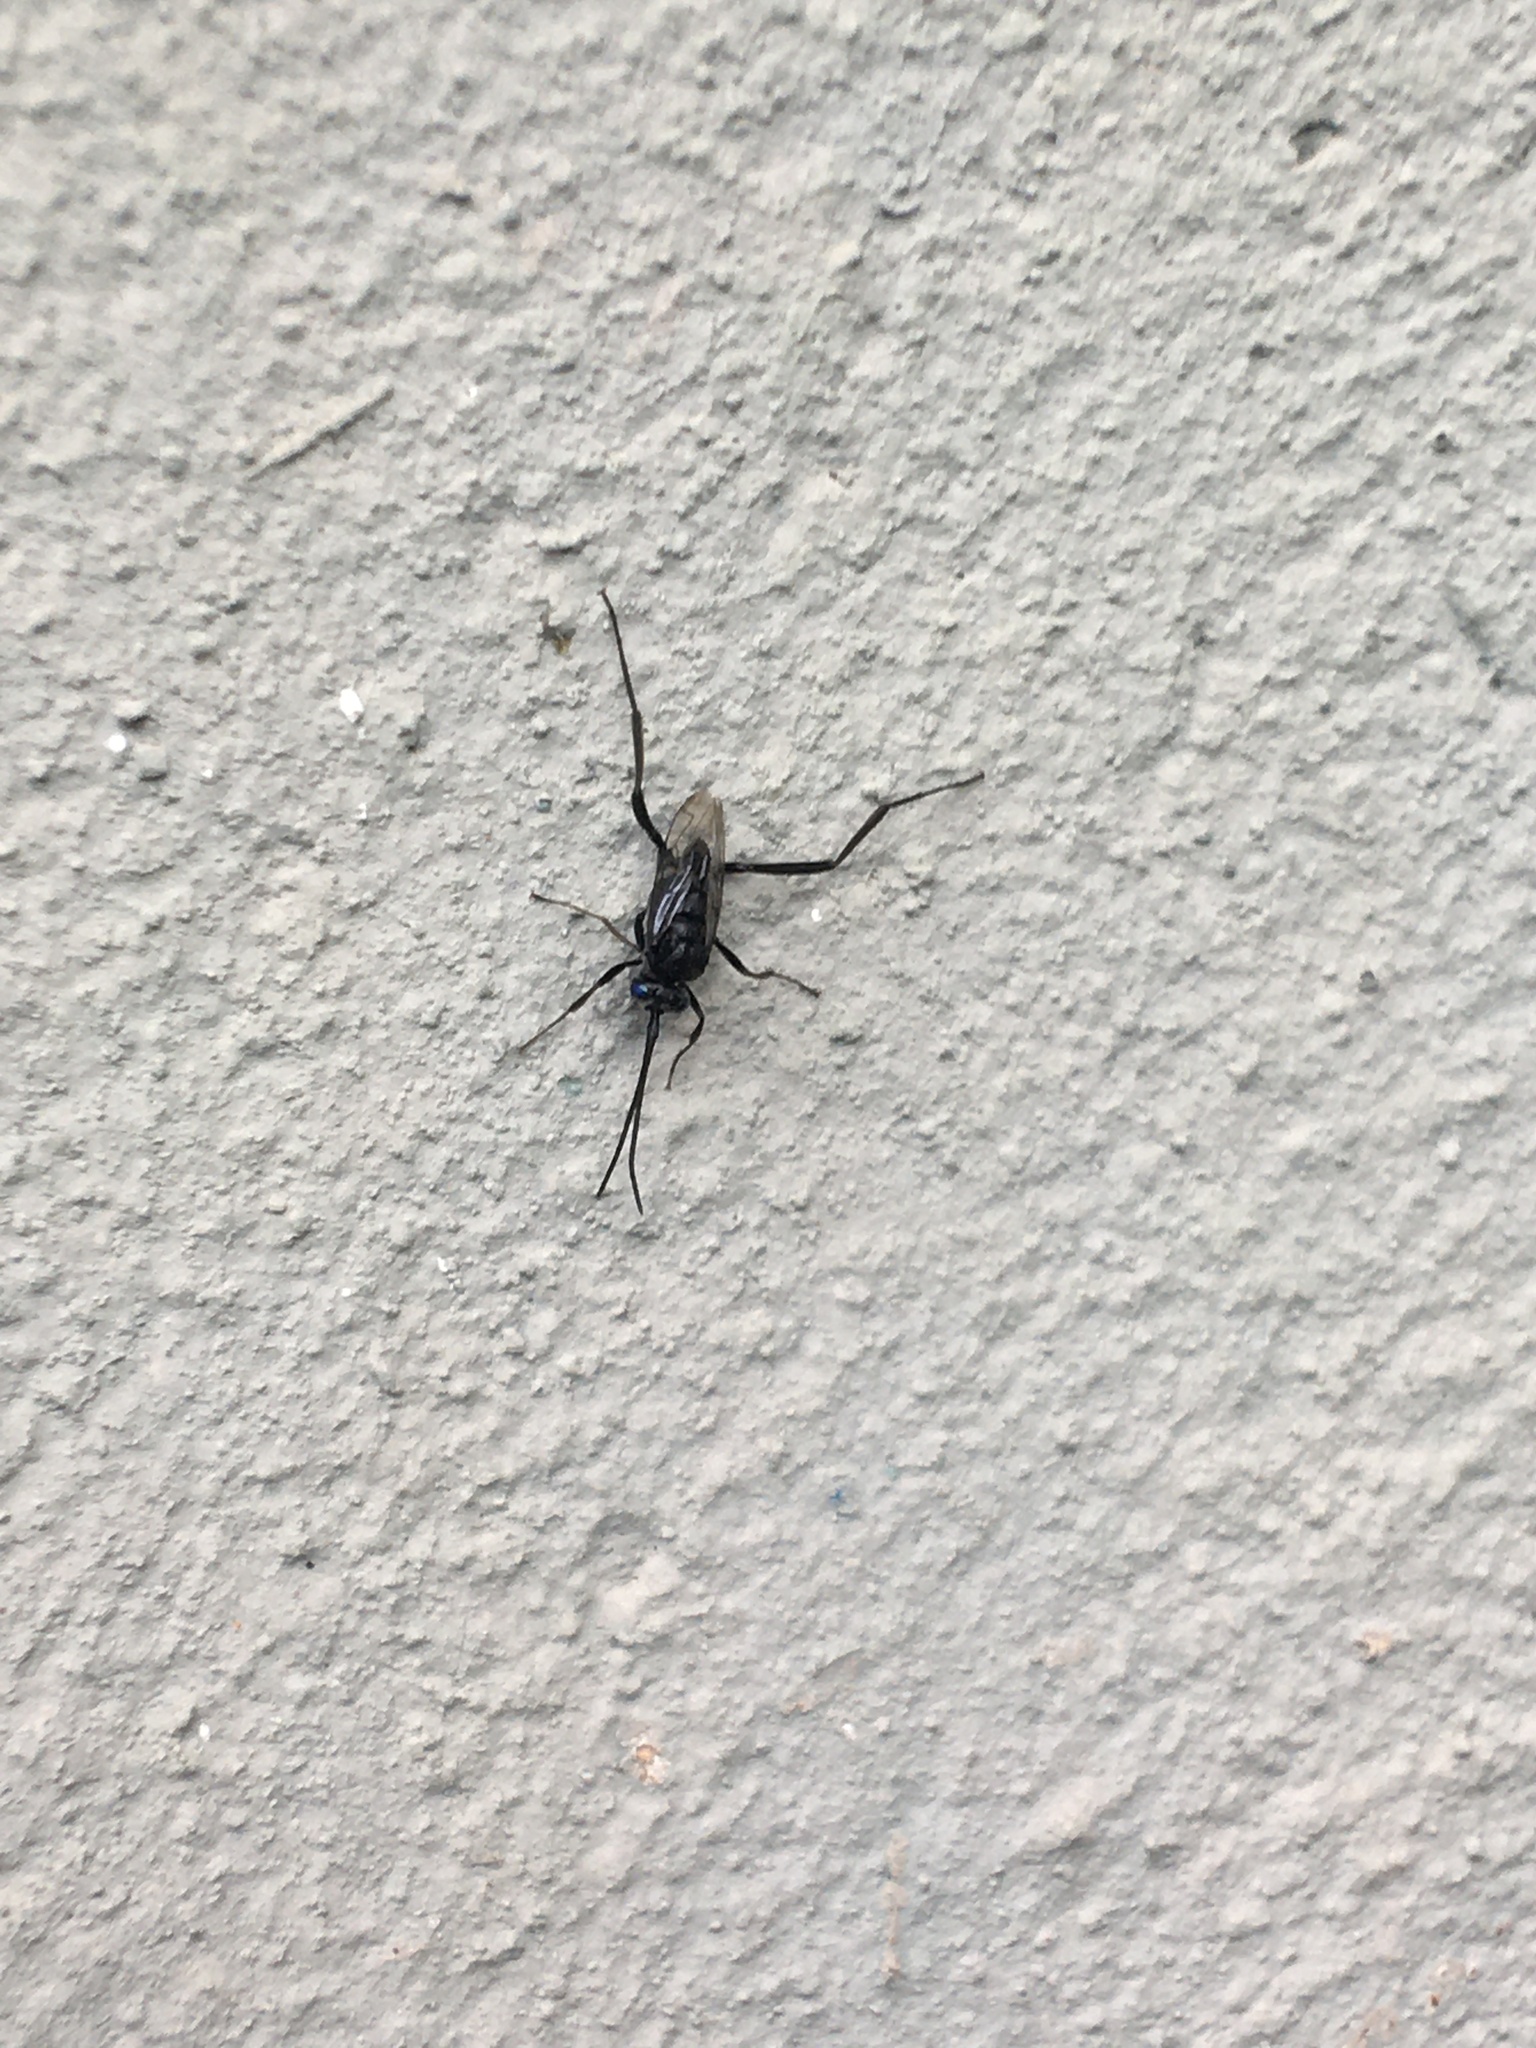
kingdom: Animalia
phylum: Arthropoda
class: Insecta
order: Hymenoptera
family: Evaniidae
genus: Evania
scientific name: Evania appendigaster
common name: Ensign wasp
